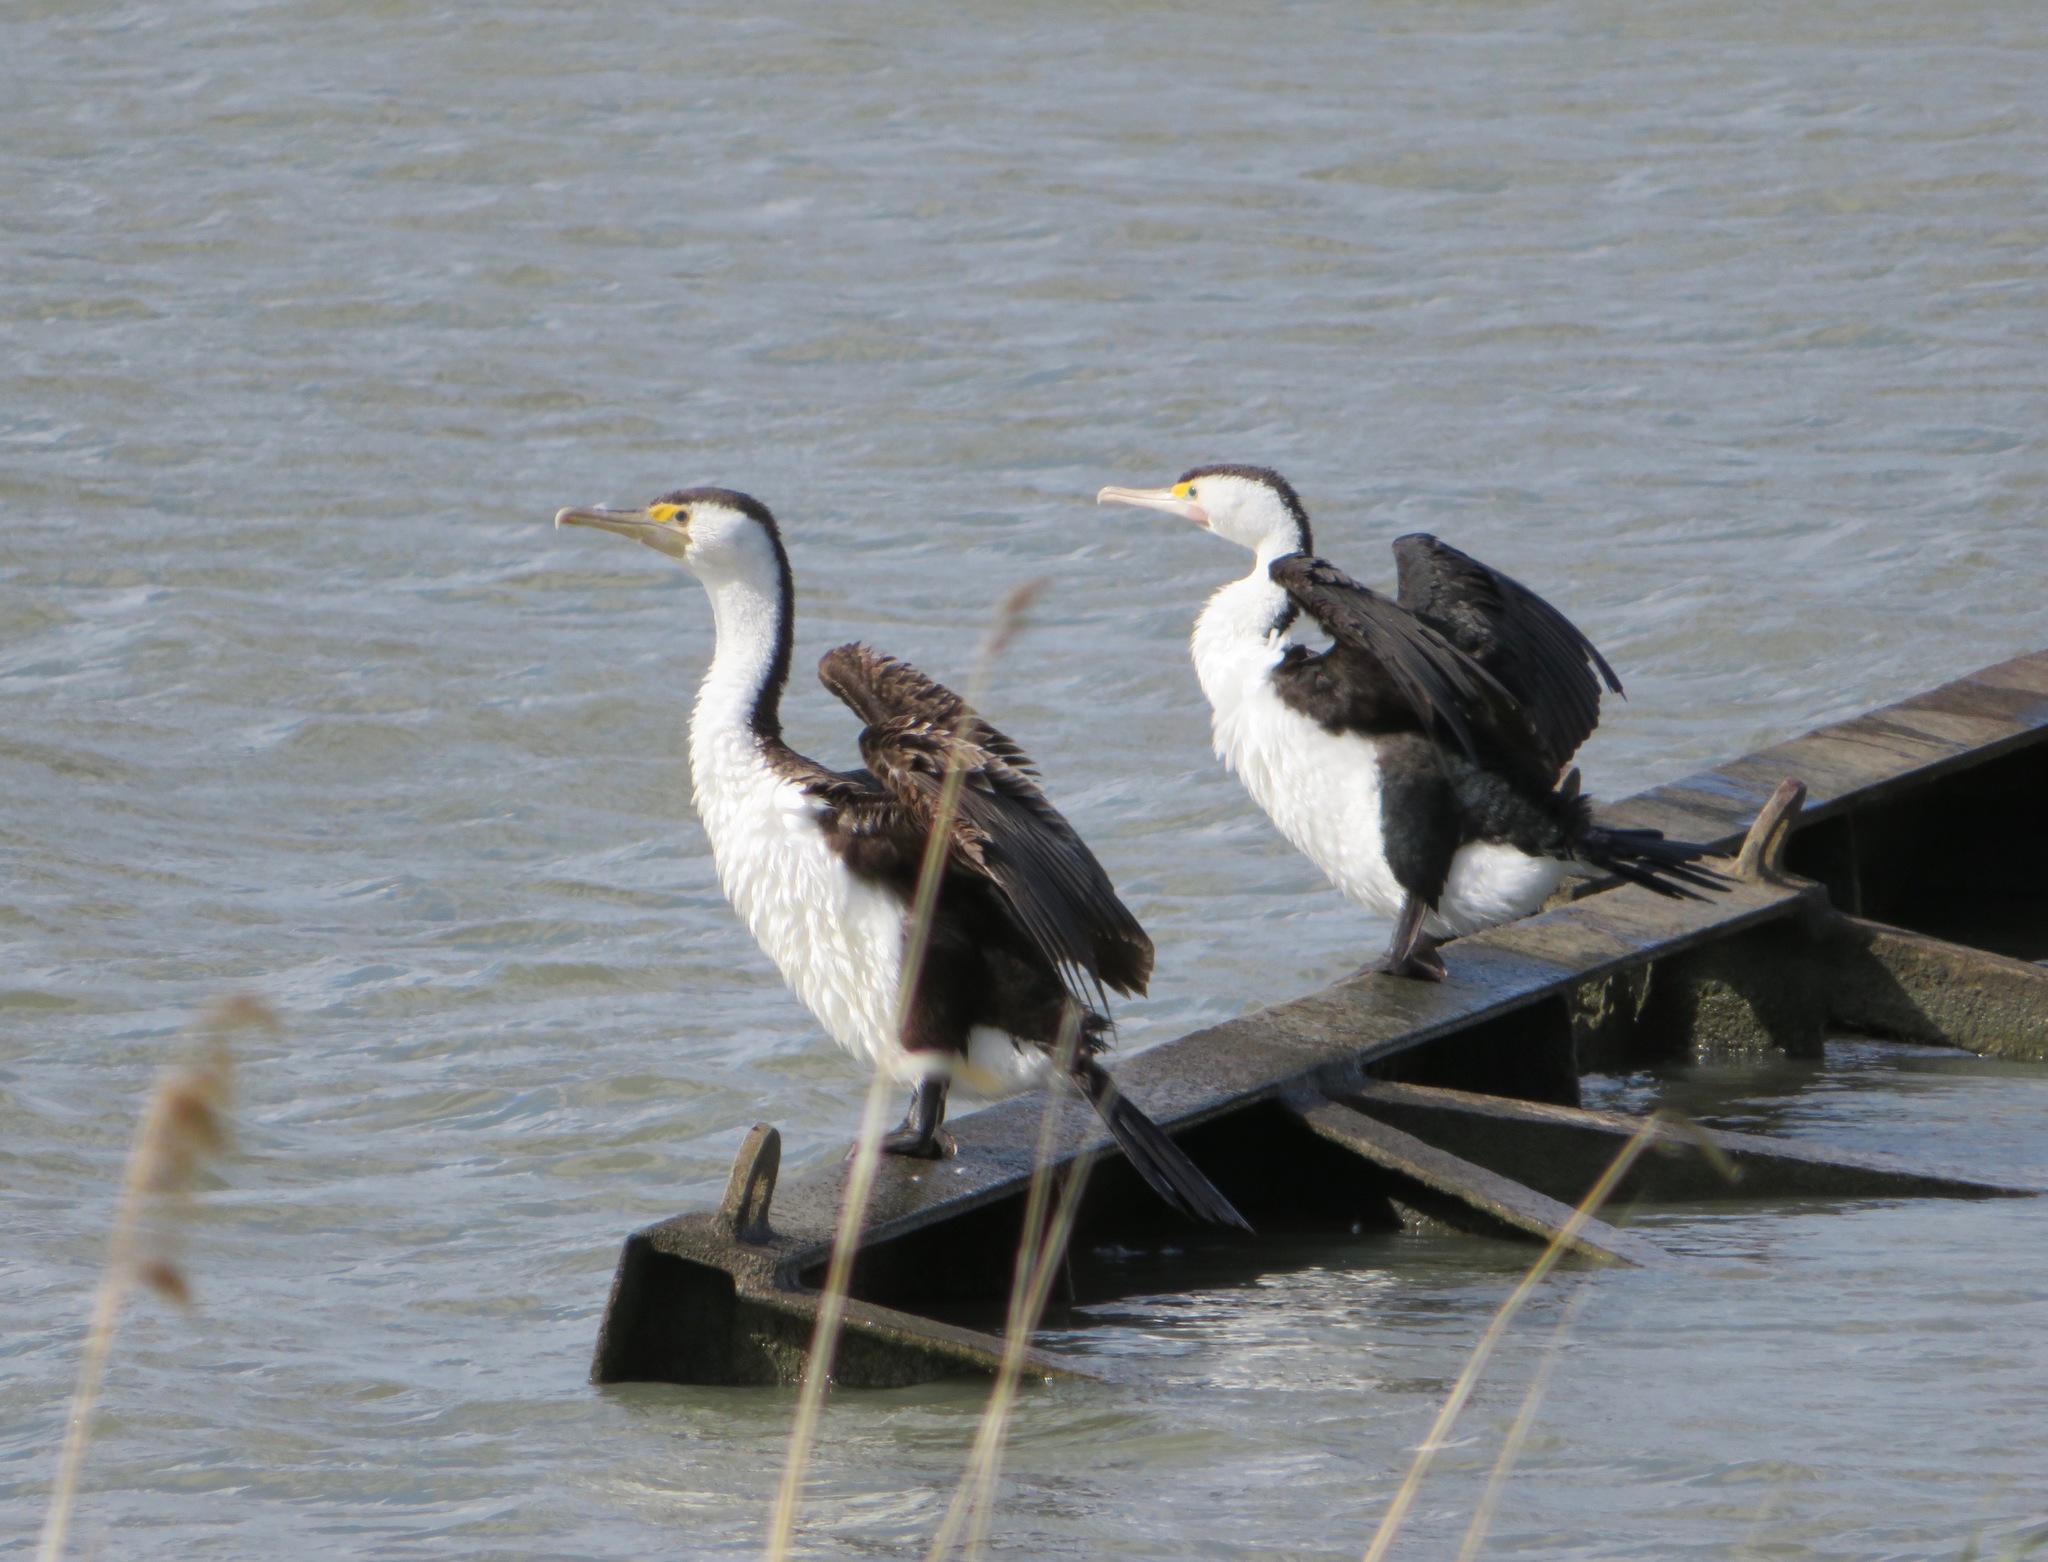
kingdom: Animalia
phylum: Chordata
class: Aves
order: Suliformes
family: Phalacrocoracidae
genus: Phalacrocorax
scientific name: Phalacrocorax varius
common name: Pied cormorant
